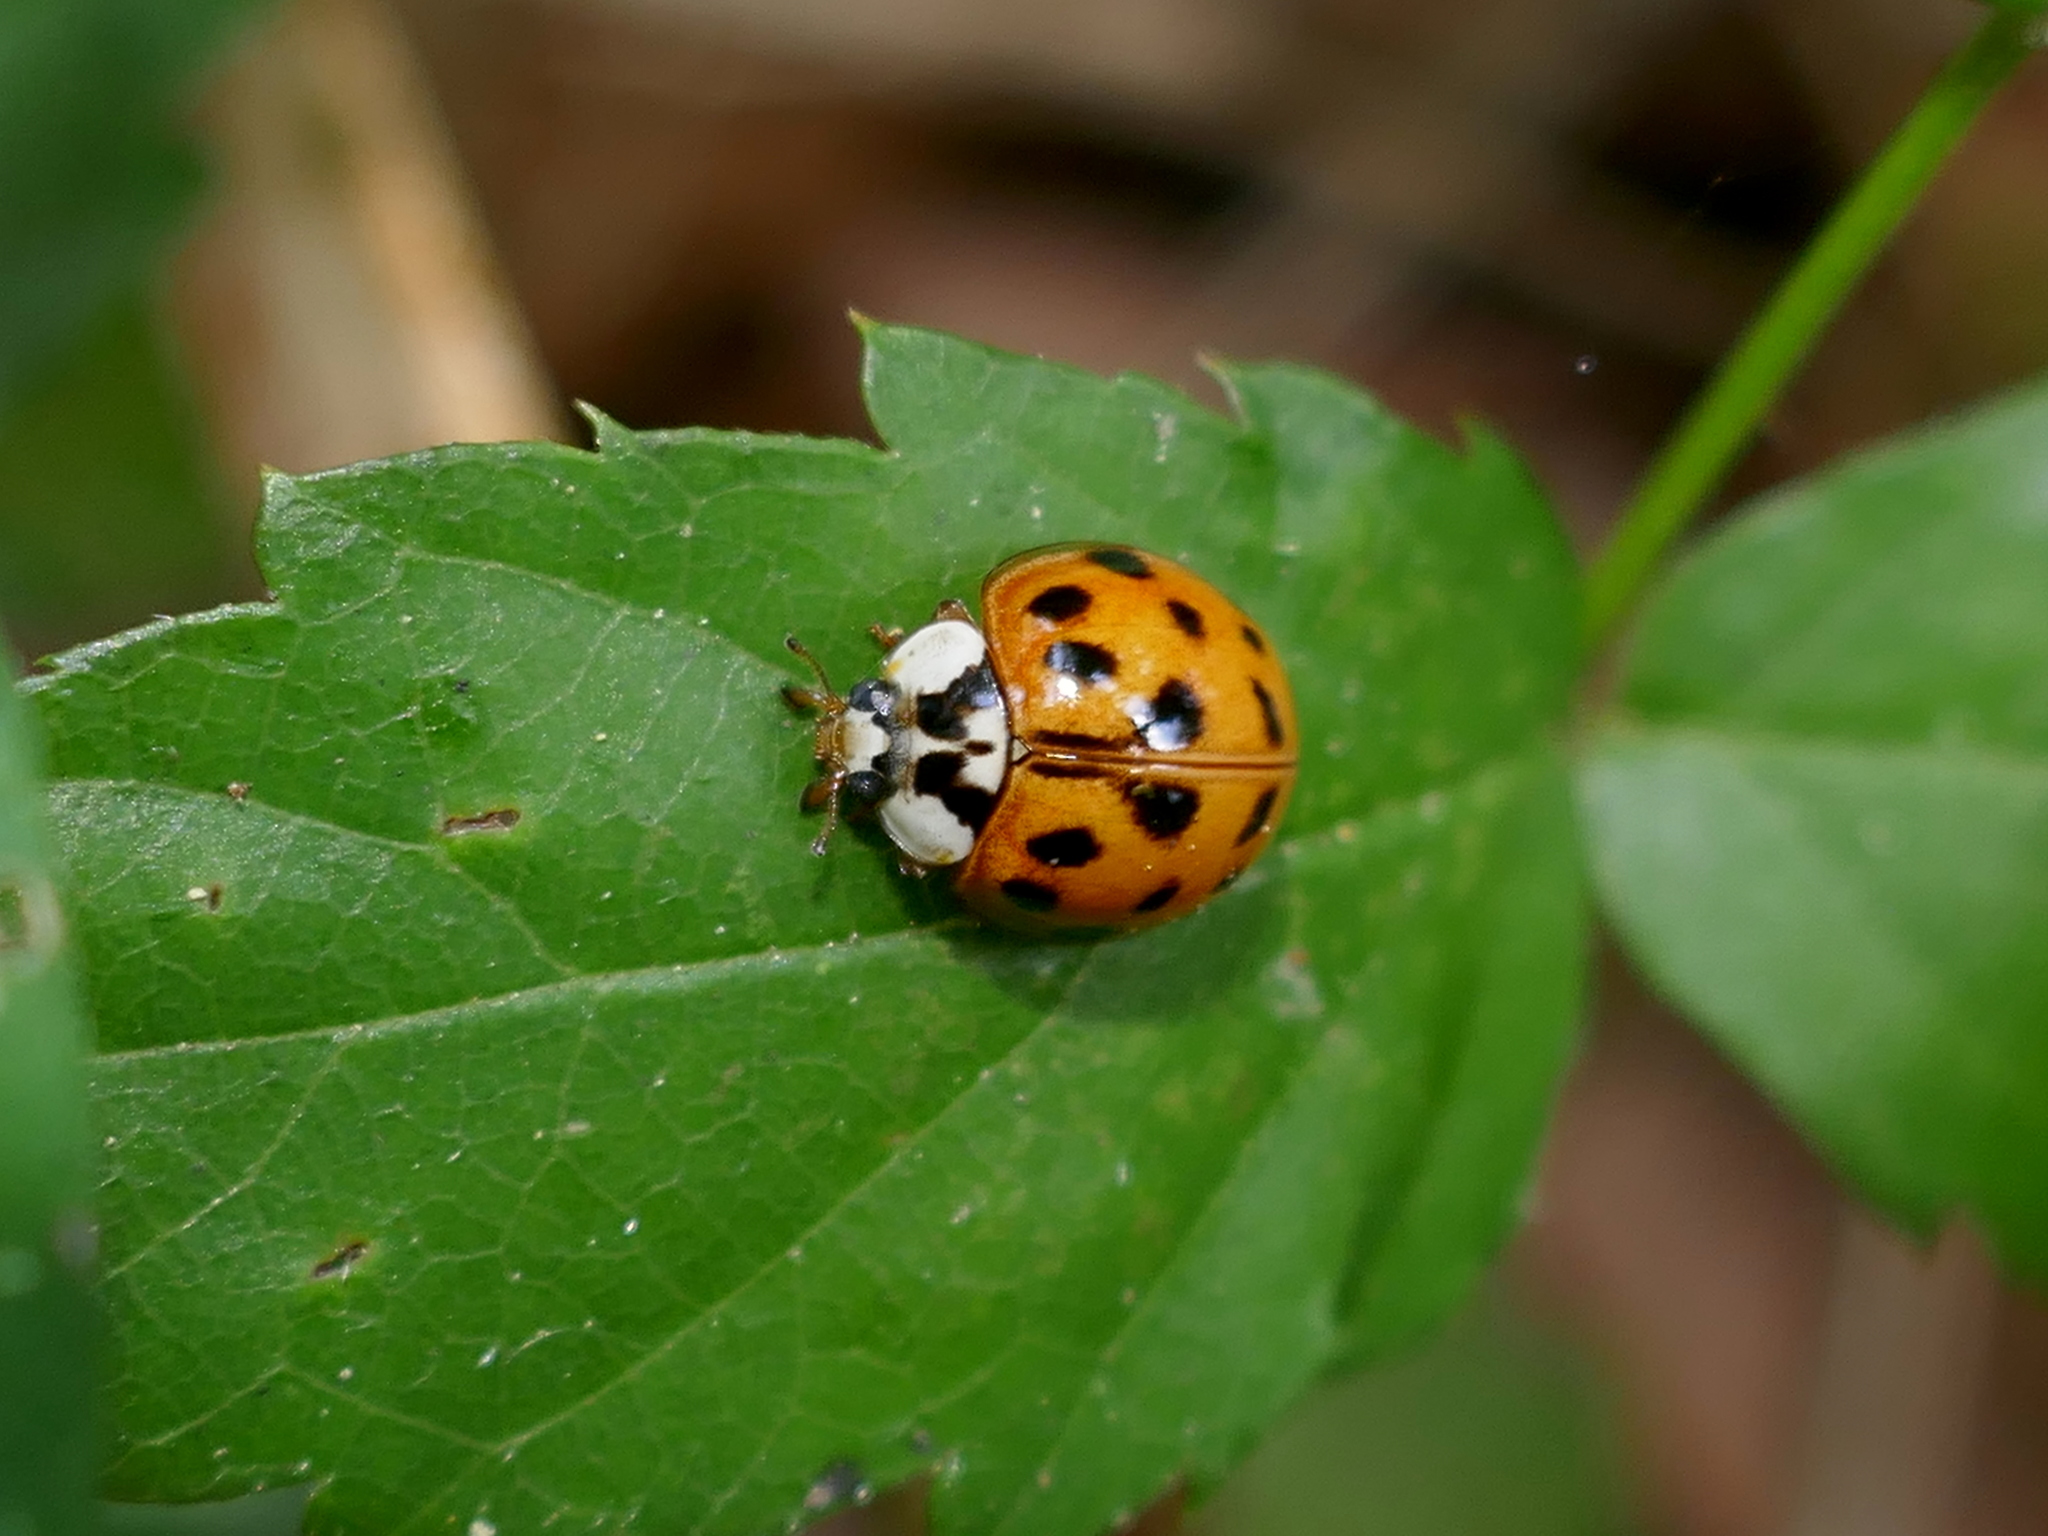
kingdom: Animalia
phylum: Arthropoda
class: Insecta
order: Coleoptera
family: Coccinellidae
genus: Harmonia
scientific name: Harmonia axyridis
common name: Harlequin ladybird
